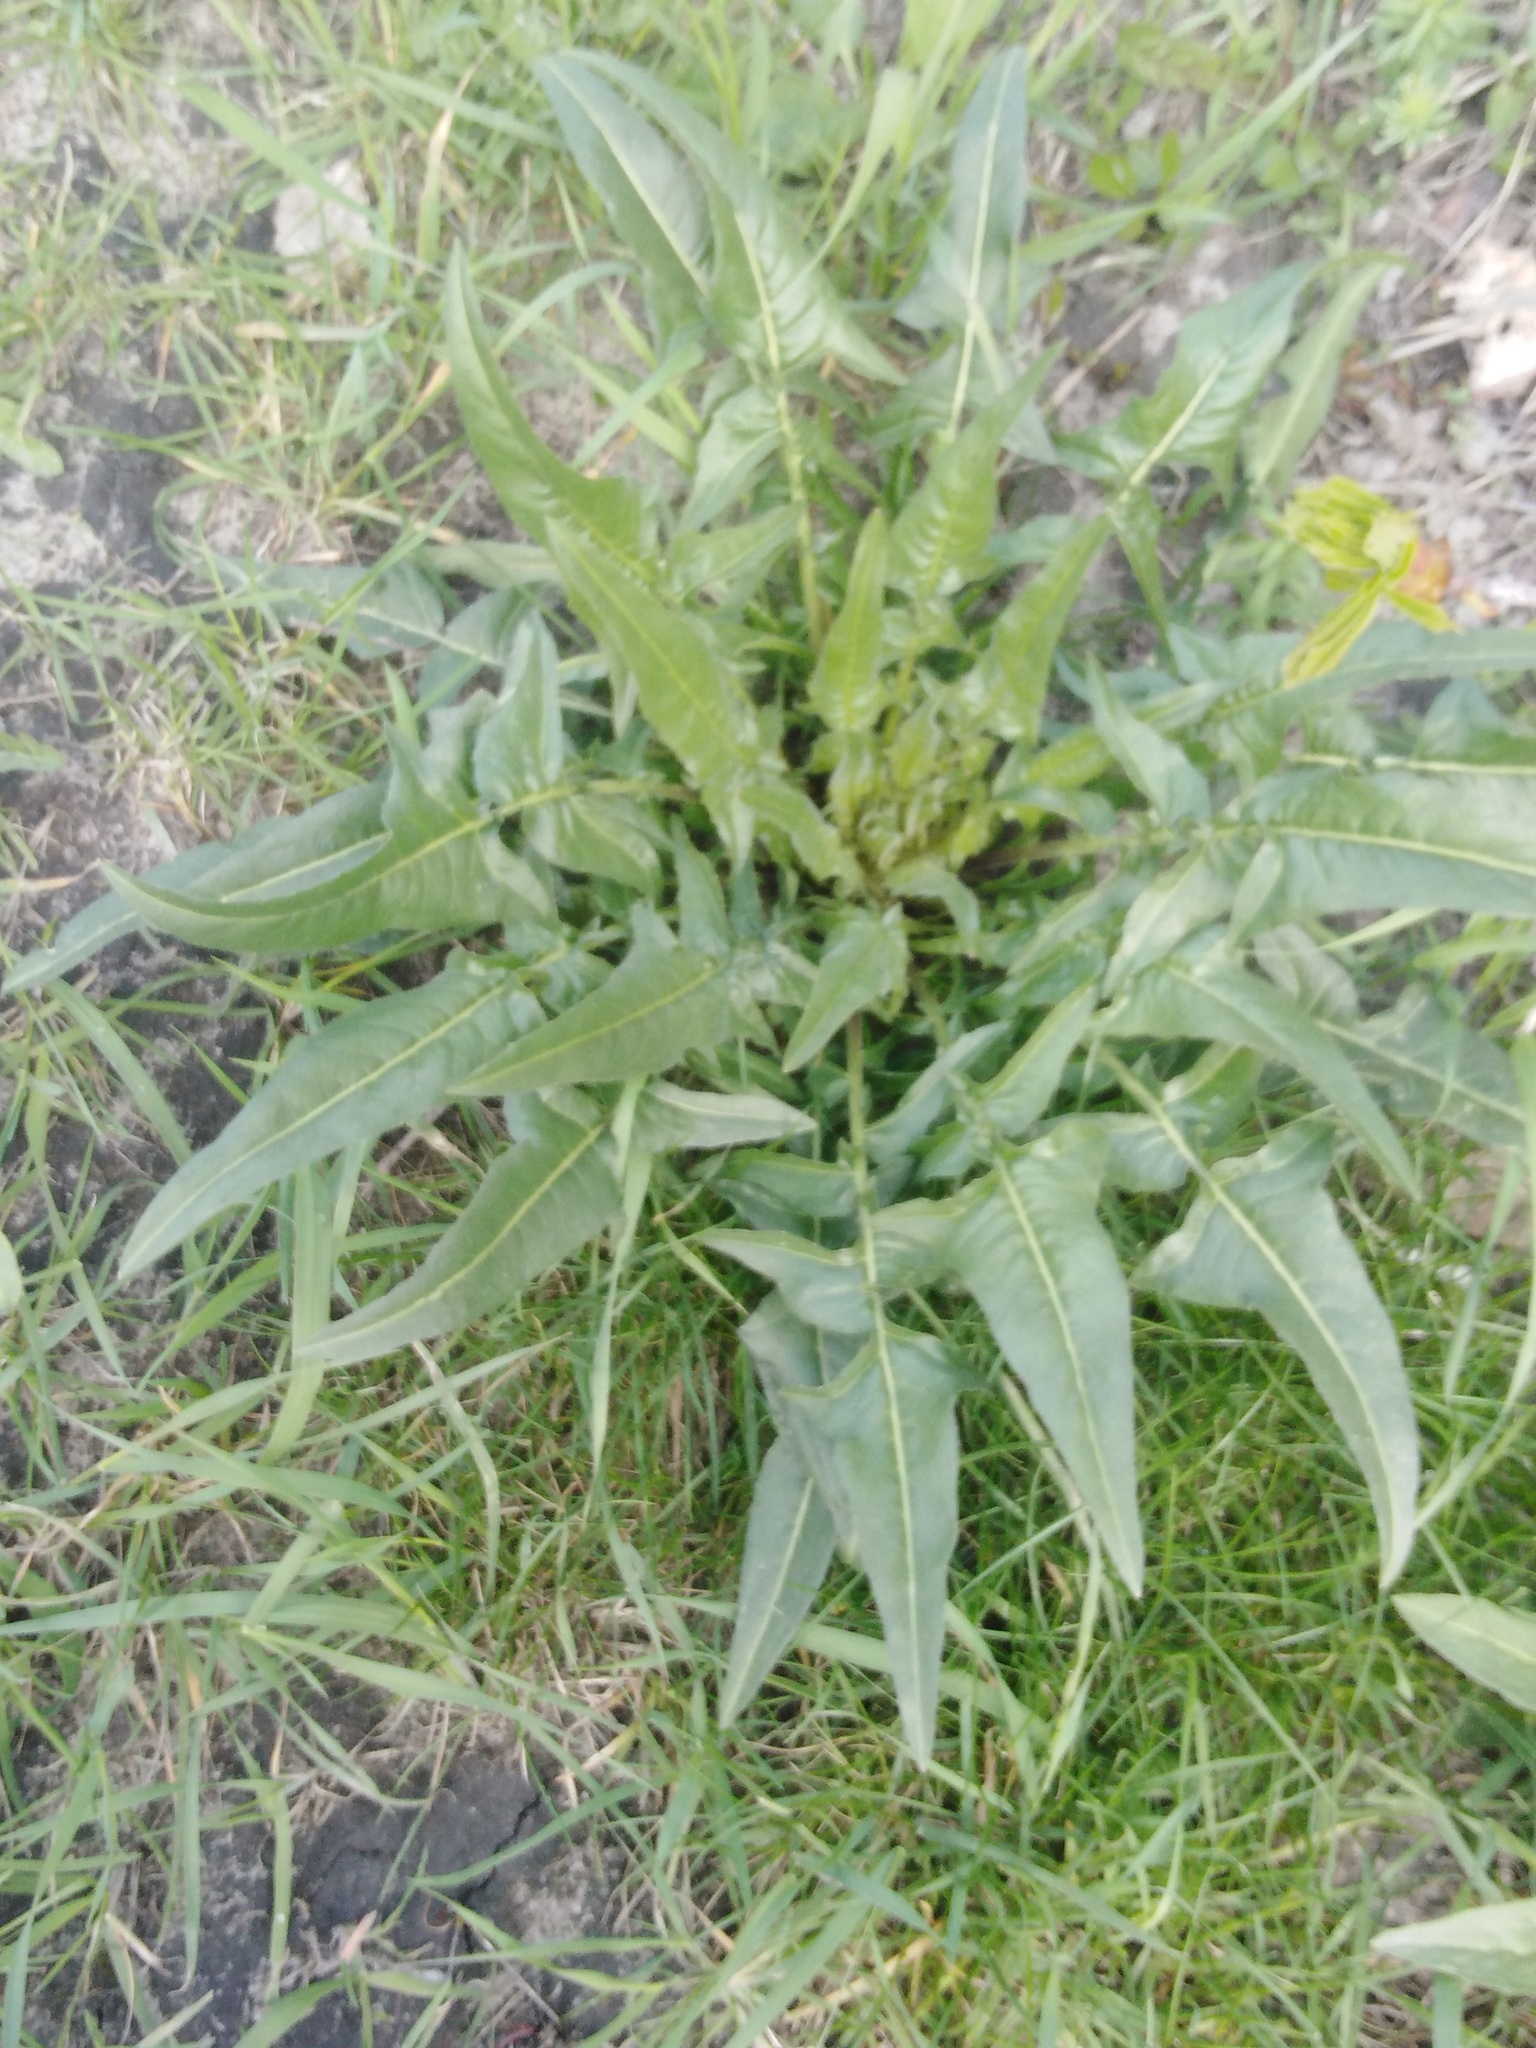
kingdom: Plantae
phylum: Tracheophyta
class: Magnoliopsida
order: Brassicales
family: Brassicaceae
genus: Bunias
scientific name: Bunias orientalis
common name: Warty-cabbage
